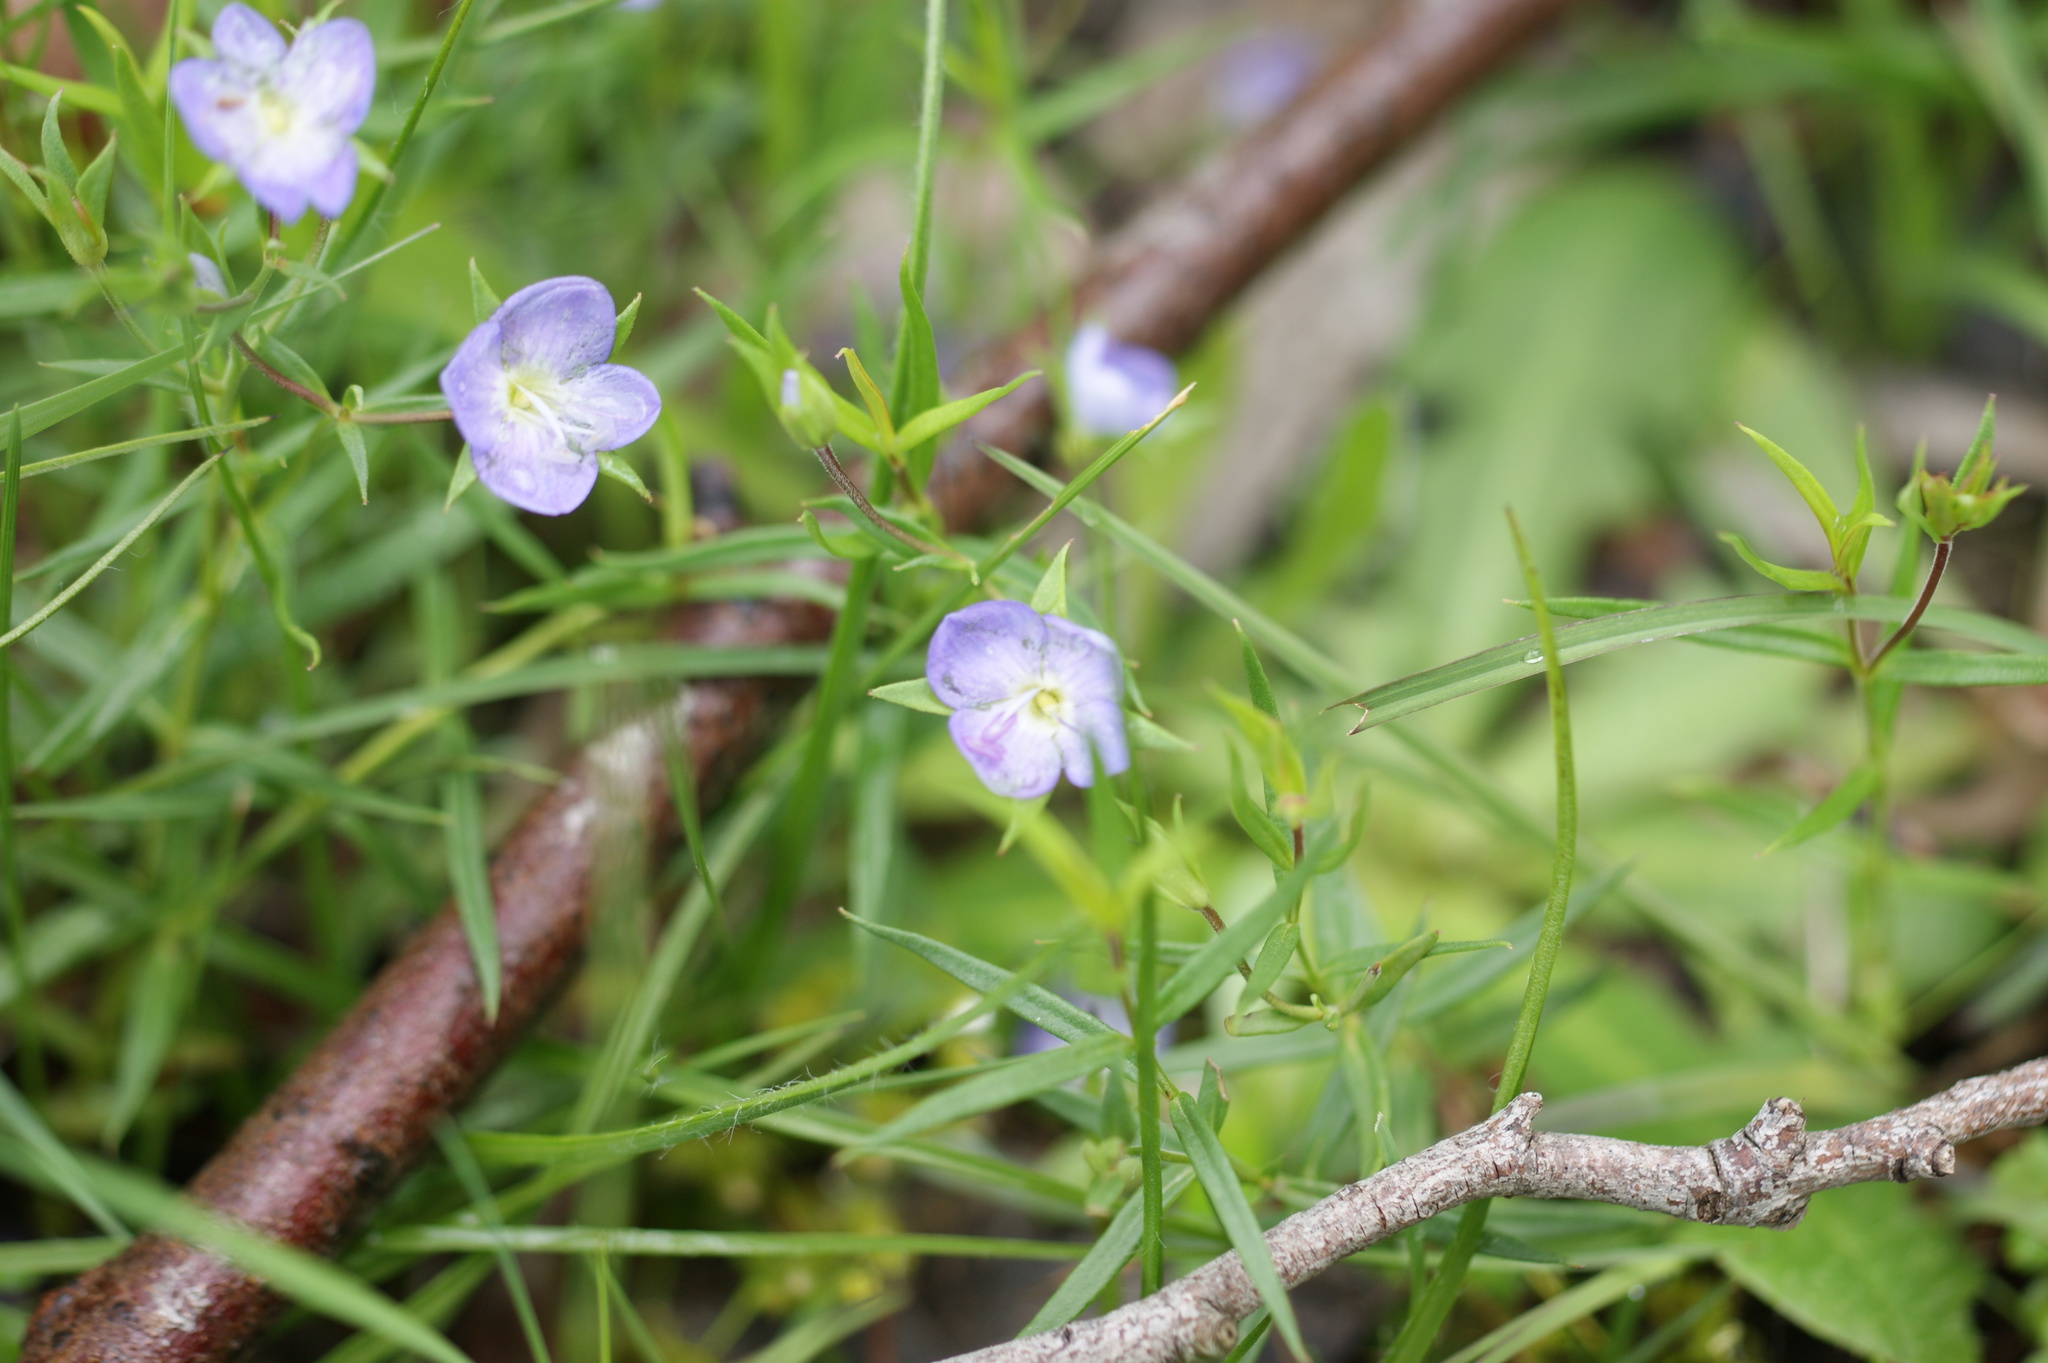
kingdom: Plantae
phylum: Tracheophyta
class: Magnoliopsida
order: Lamiales
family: Plantaginaceae
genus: Veronica
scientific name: Veronica gracilis
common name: Slender speedwell
